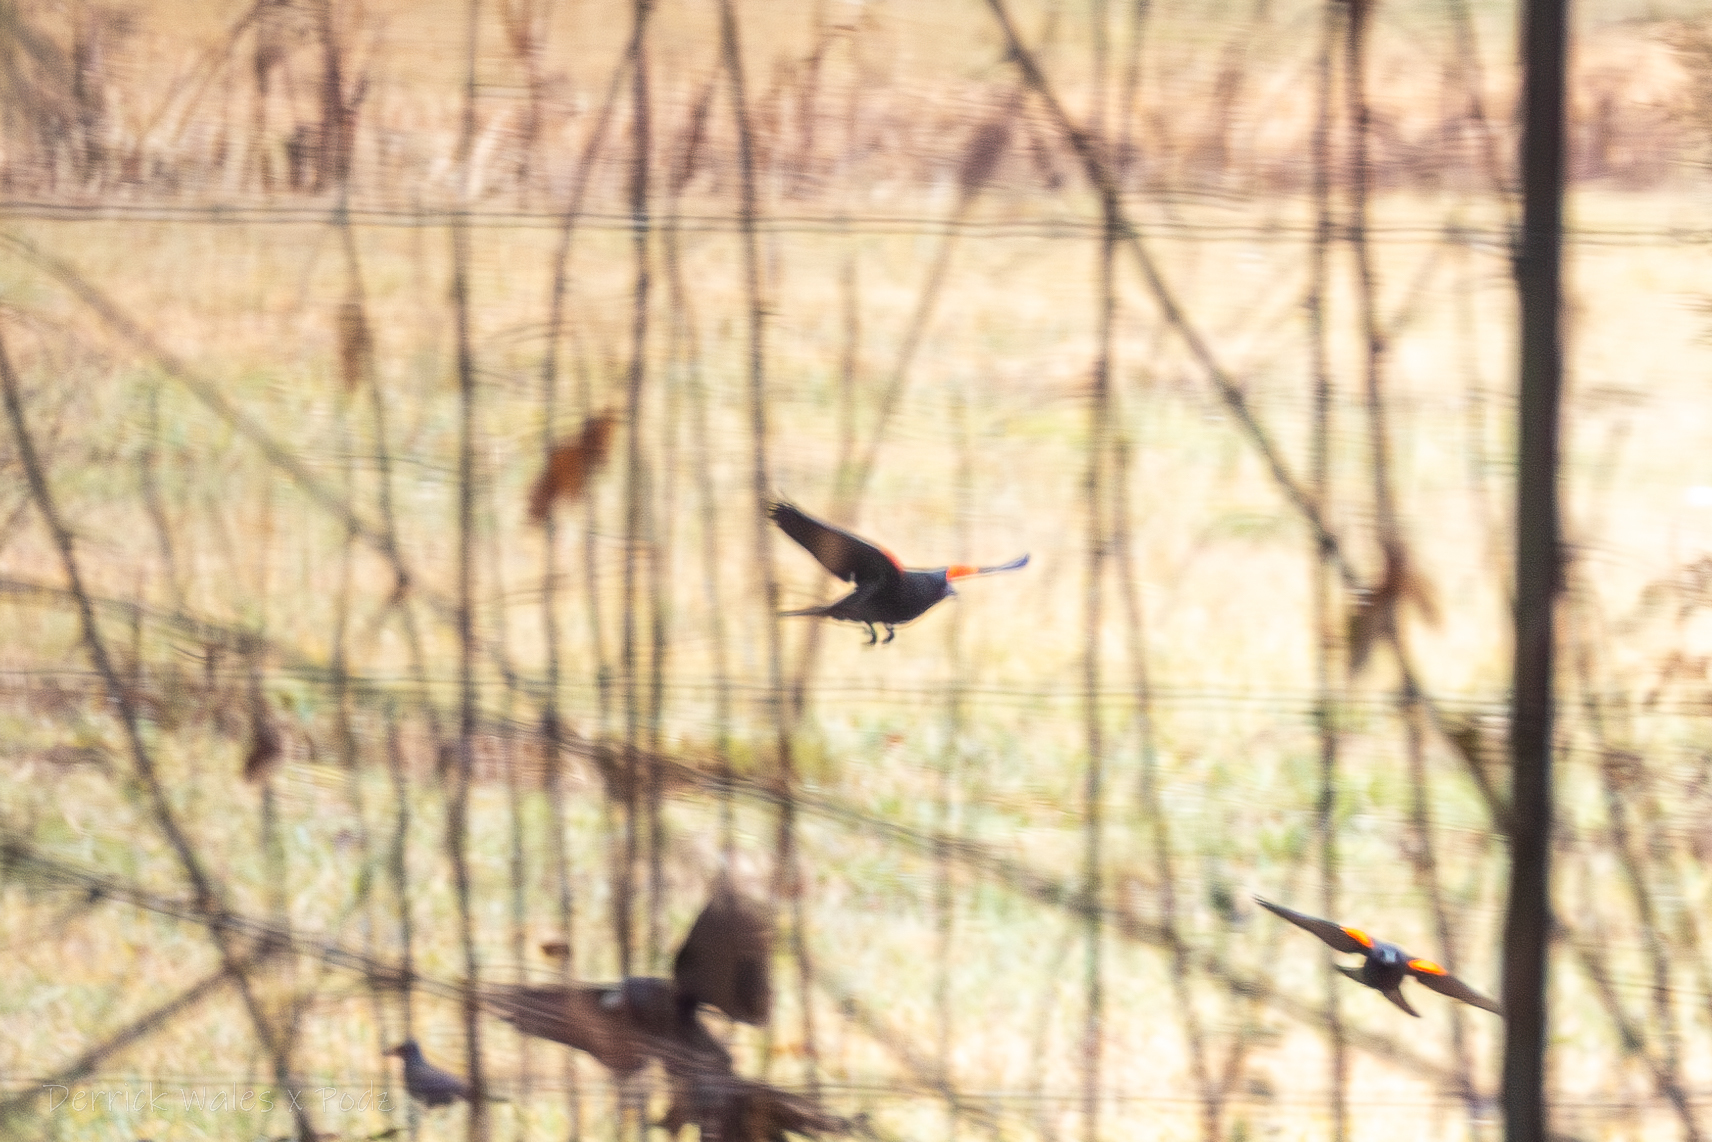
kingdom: Animalia
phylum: Chordata
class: Aves
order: Passeriformes
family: Icteridae
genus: Agelaius
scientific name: Agelaius phoeniceus
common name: Red-winged blackbird
